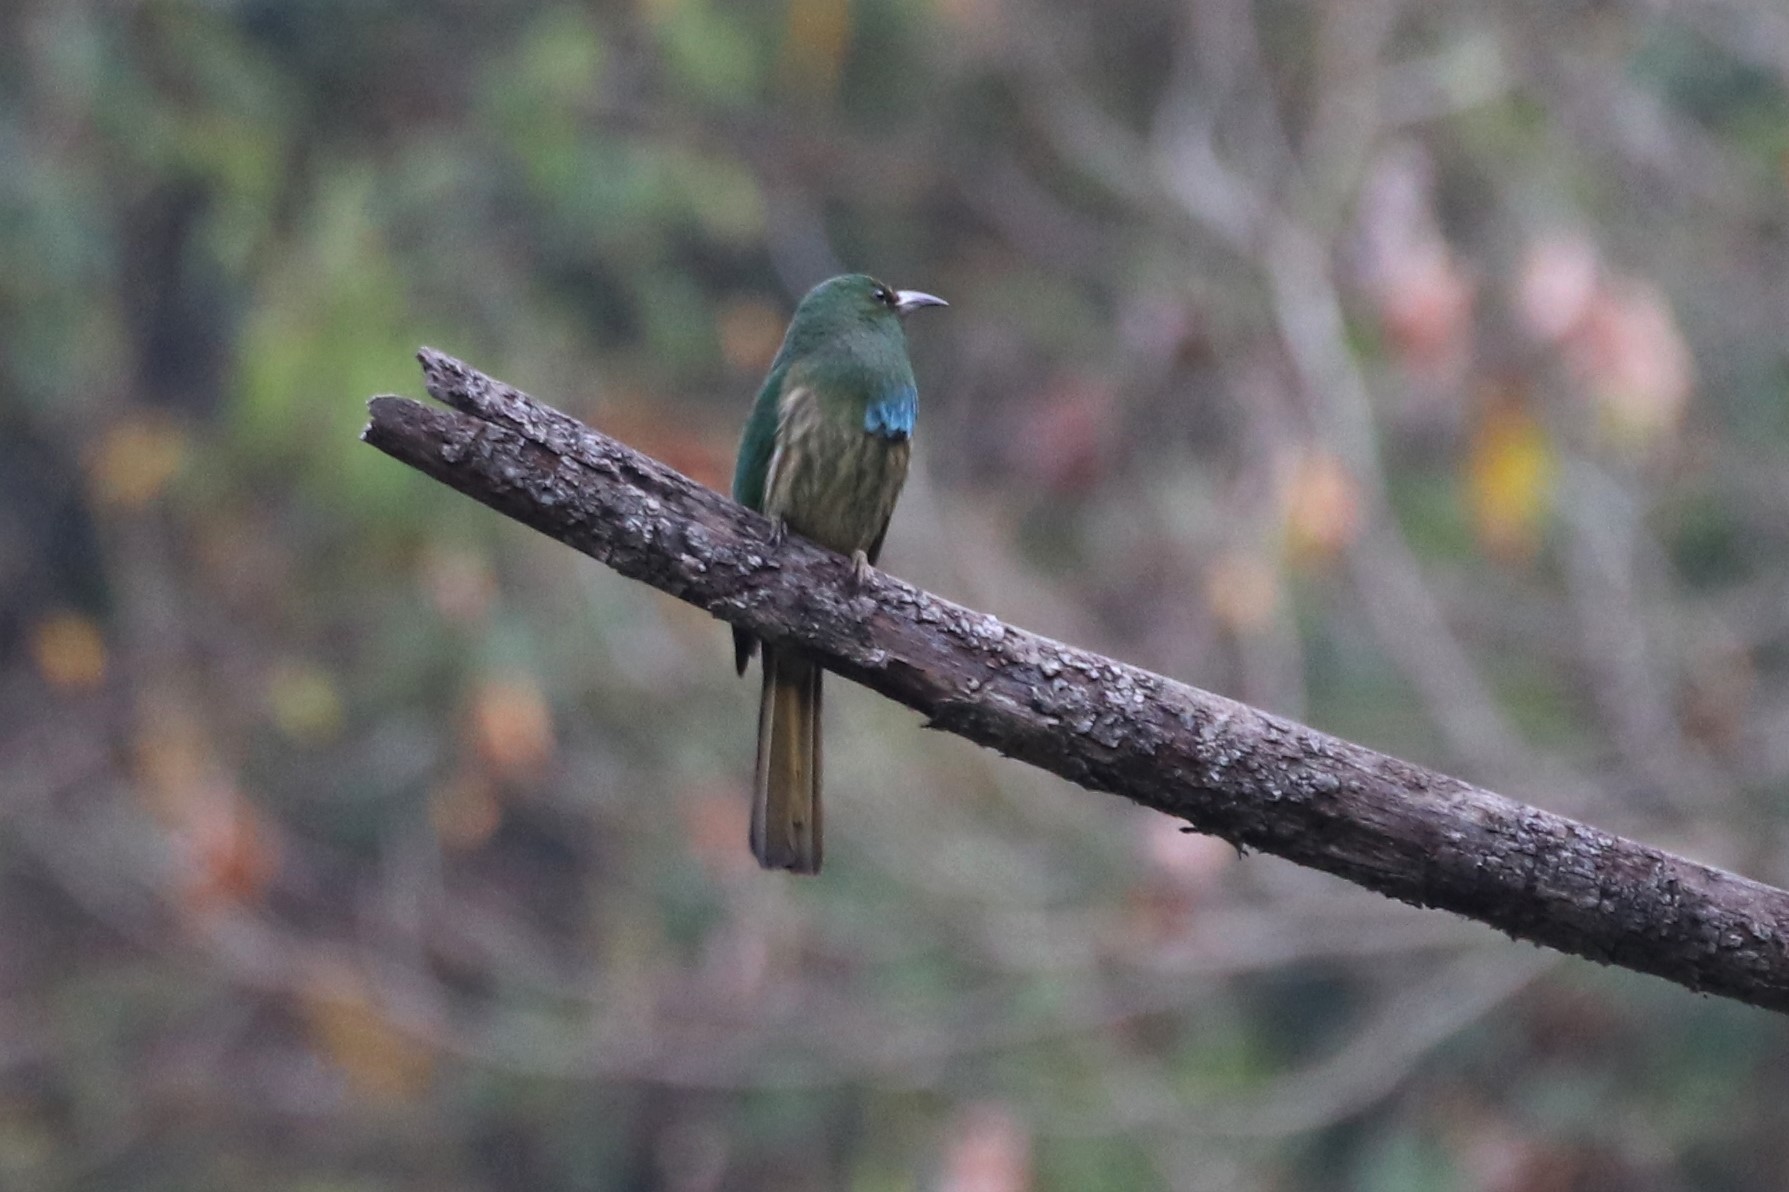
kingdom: Animalia
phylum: Chordata
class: Aves
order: Coraciiformes
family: Meropidae
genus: Nyctyornis
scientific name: Nyctyornis athertoni
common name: Blue-bearded bee-eater
